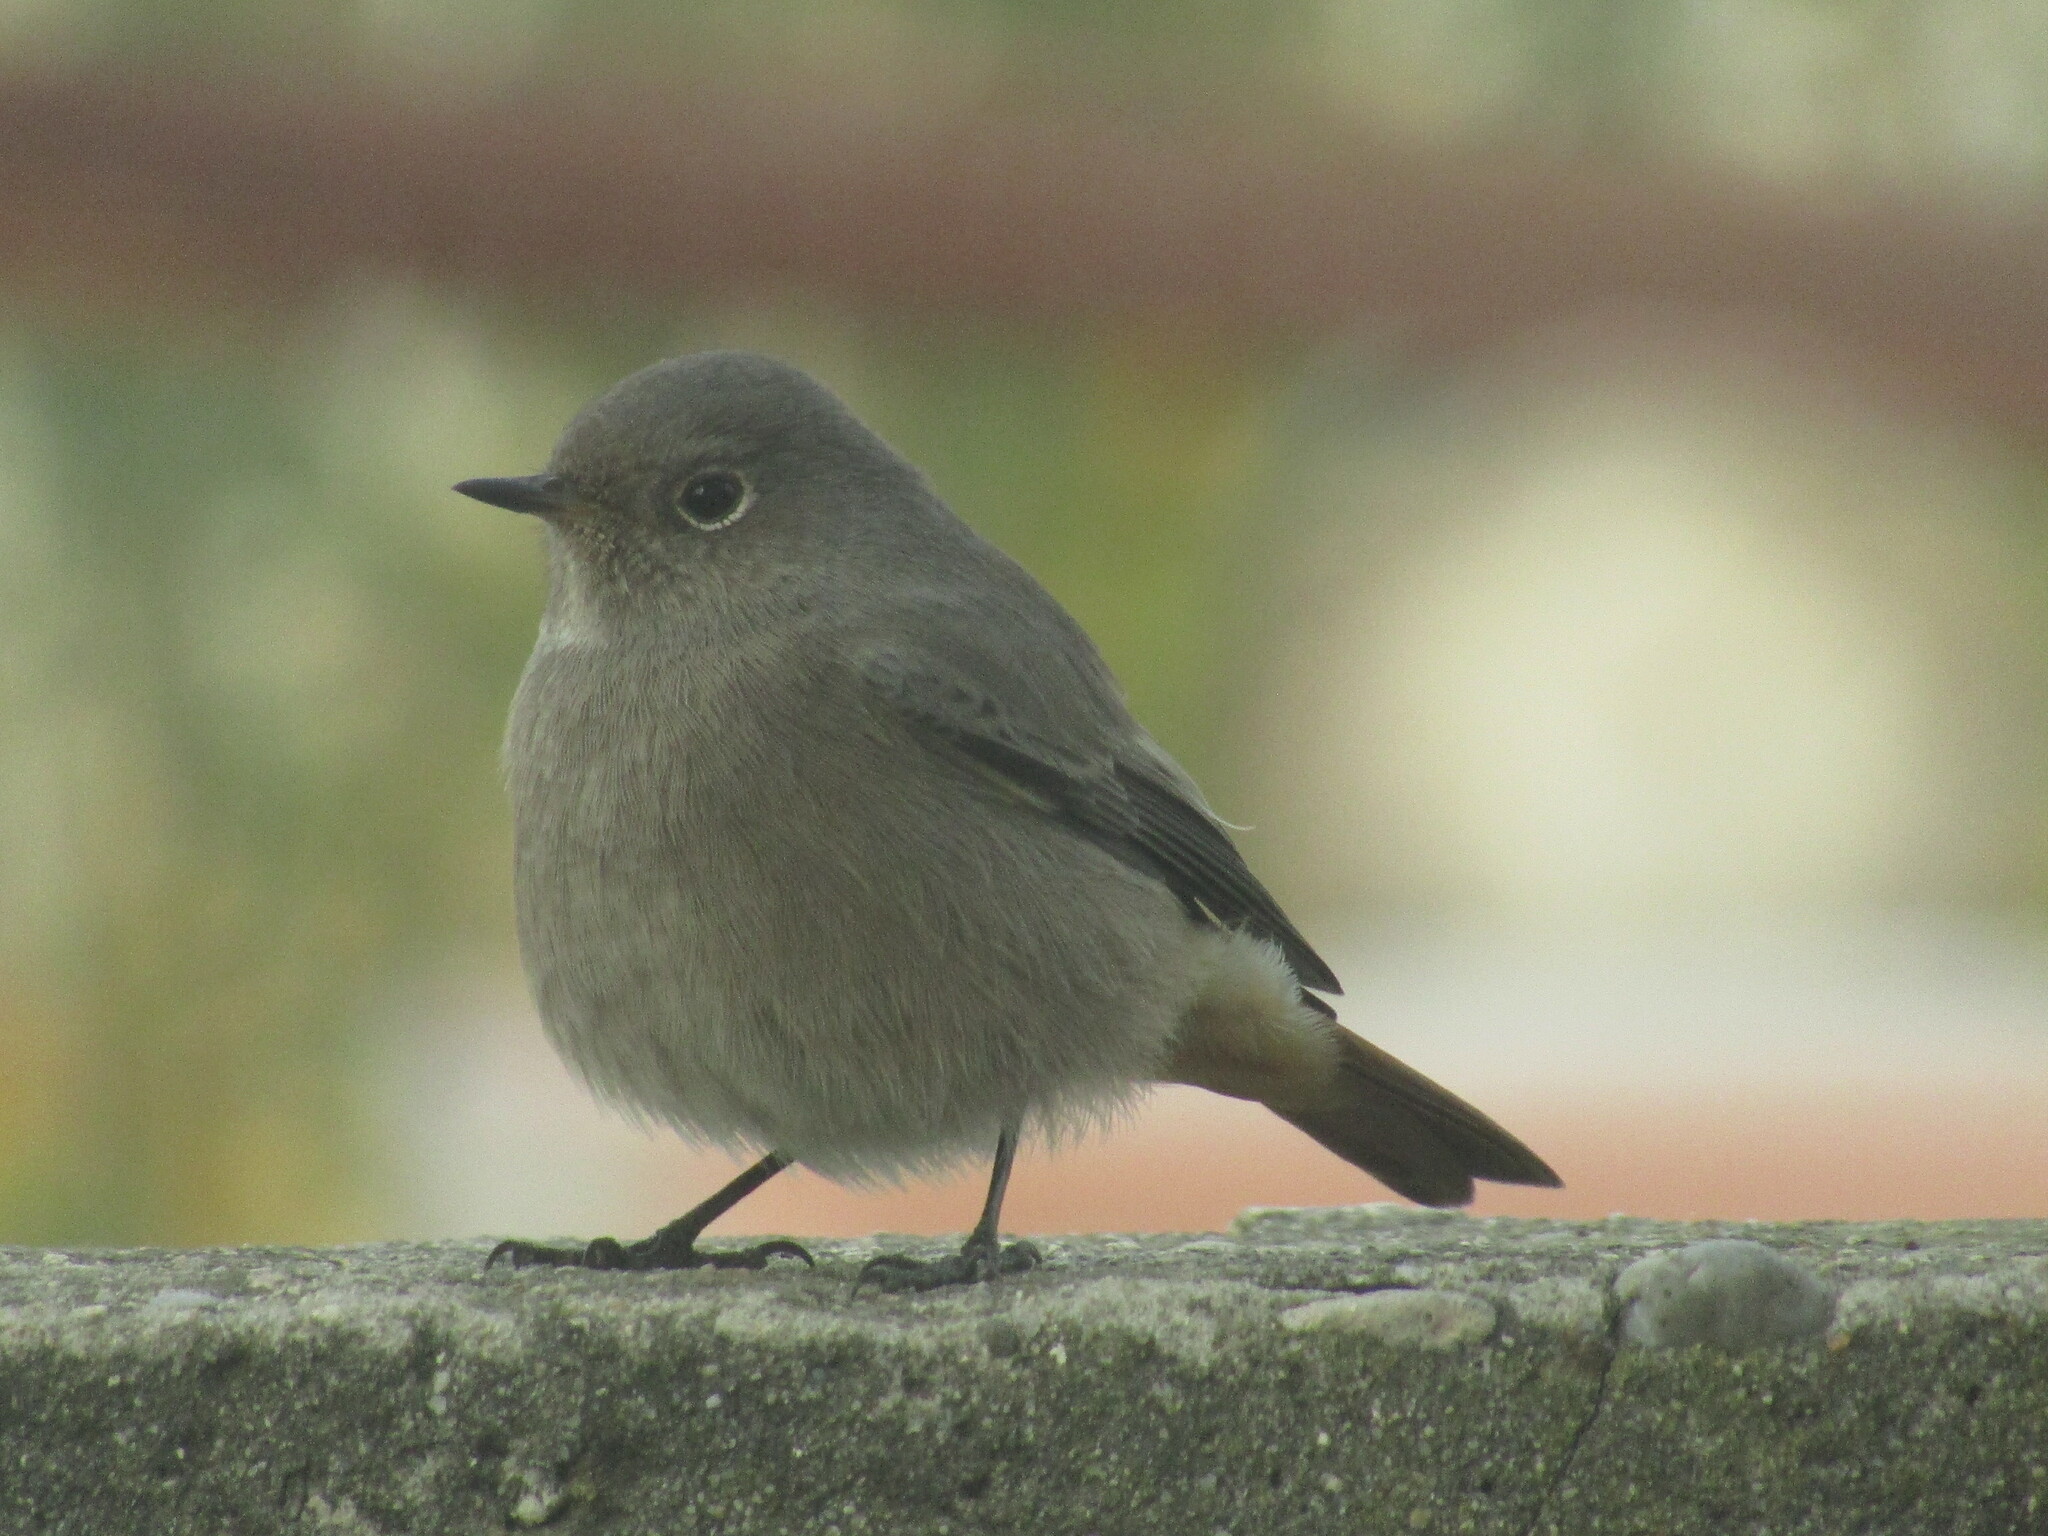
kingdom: Animalia
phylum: Chordata
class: Aves
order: Passeriformes
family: Muscicapidae
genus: Phoenicurus
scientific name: Phoenicurus ochruros
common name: Black redstart
